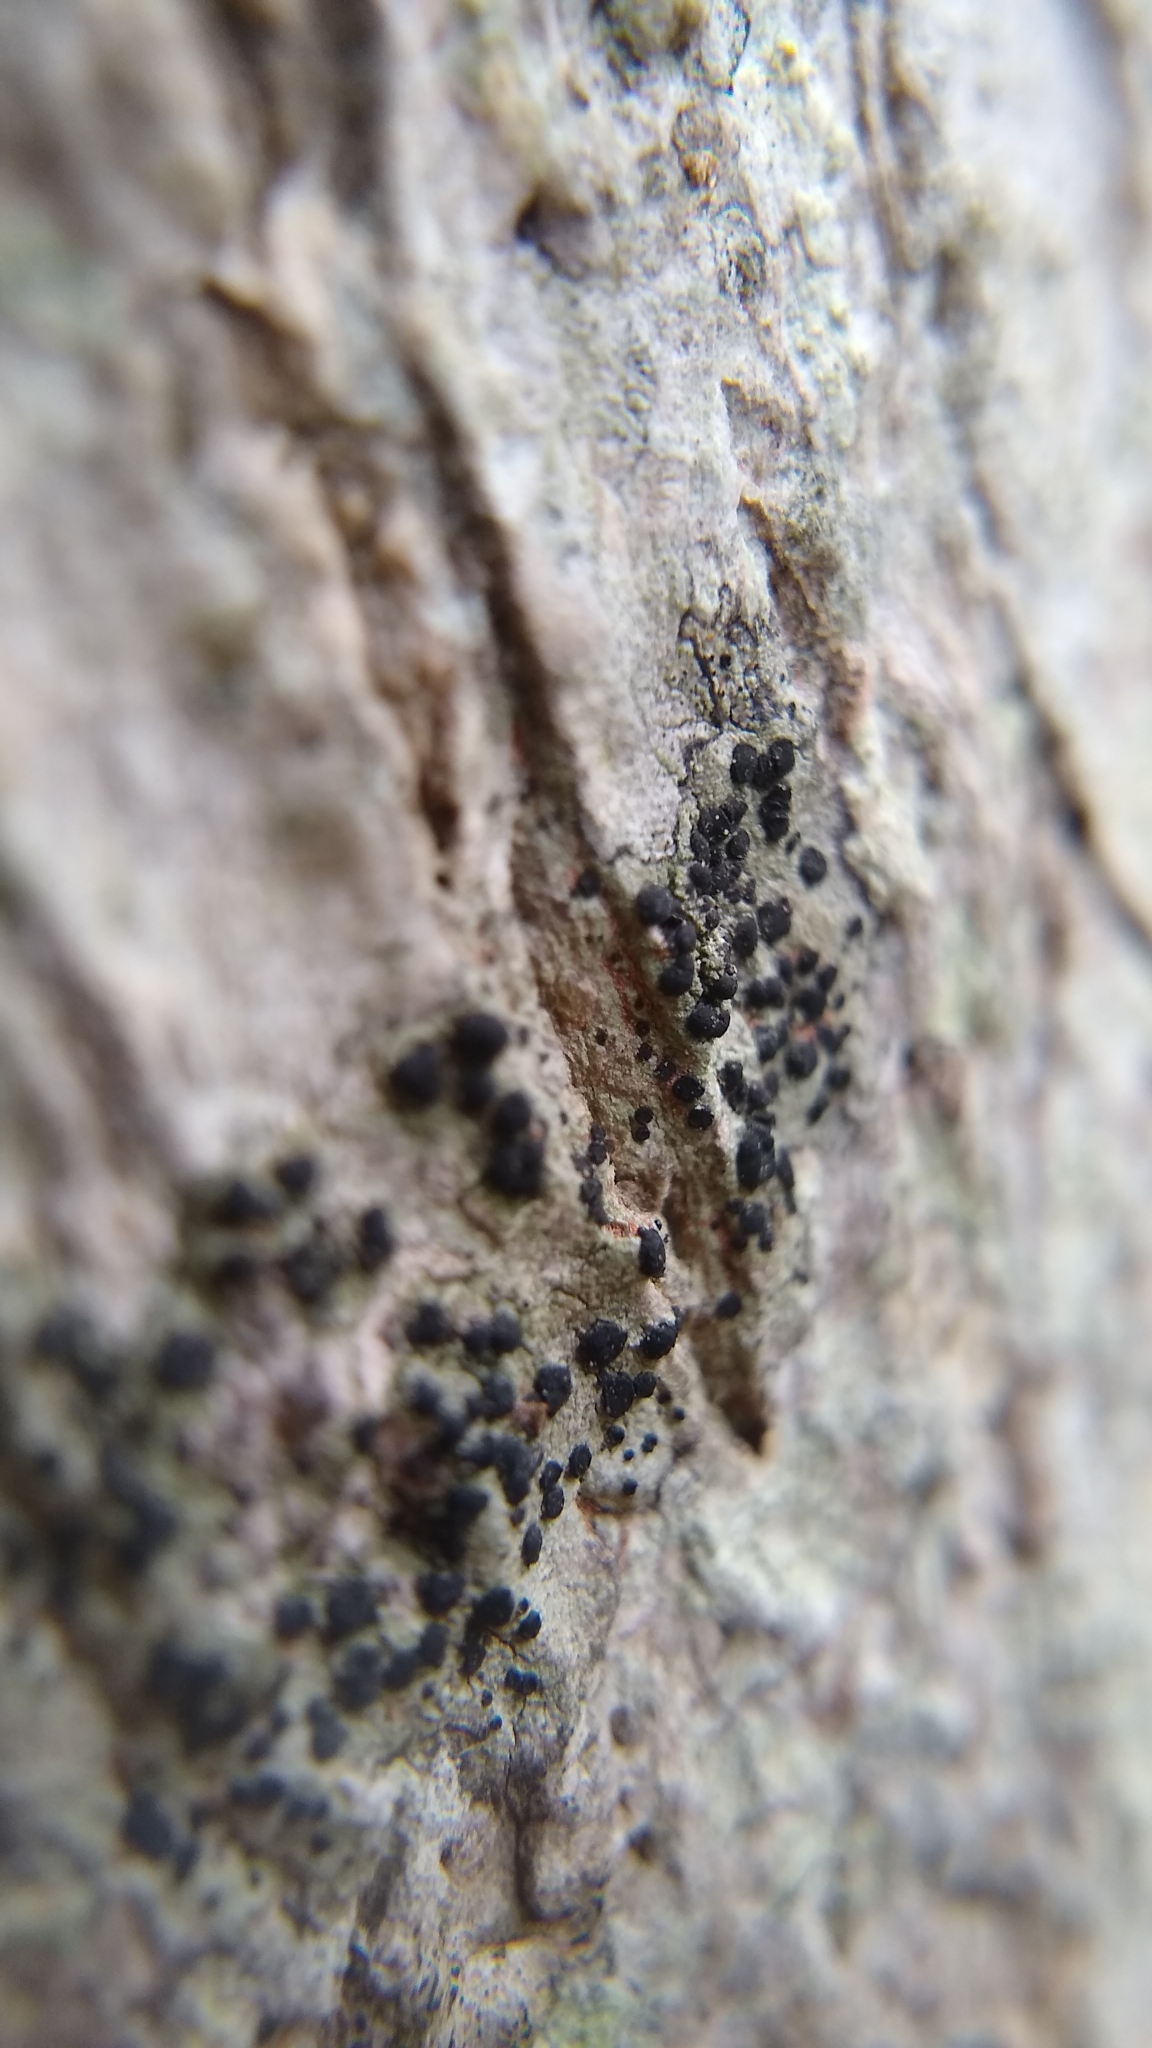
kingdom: Fungi
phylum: Ascomycota
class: Lecanoromycetes
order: Caliciales
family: Caliciaceae
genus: Buellia
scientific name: Buellia erubescens
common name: Common button lichen
